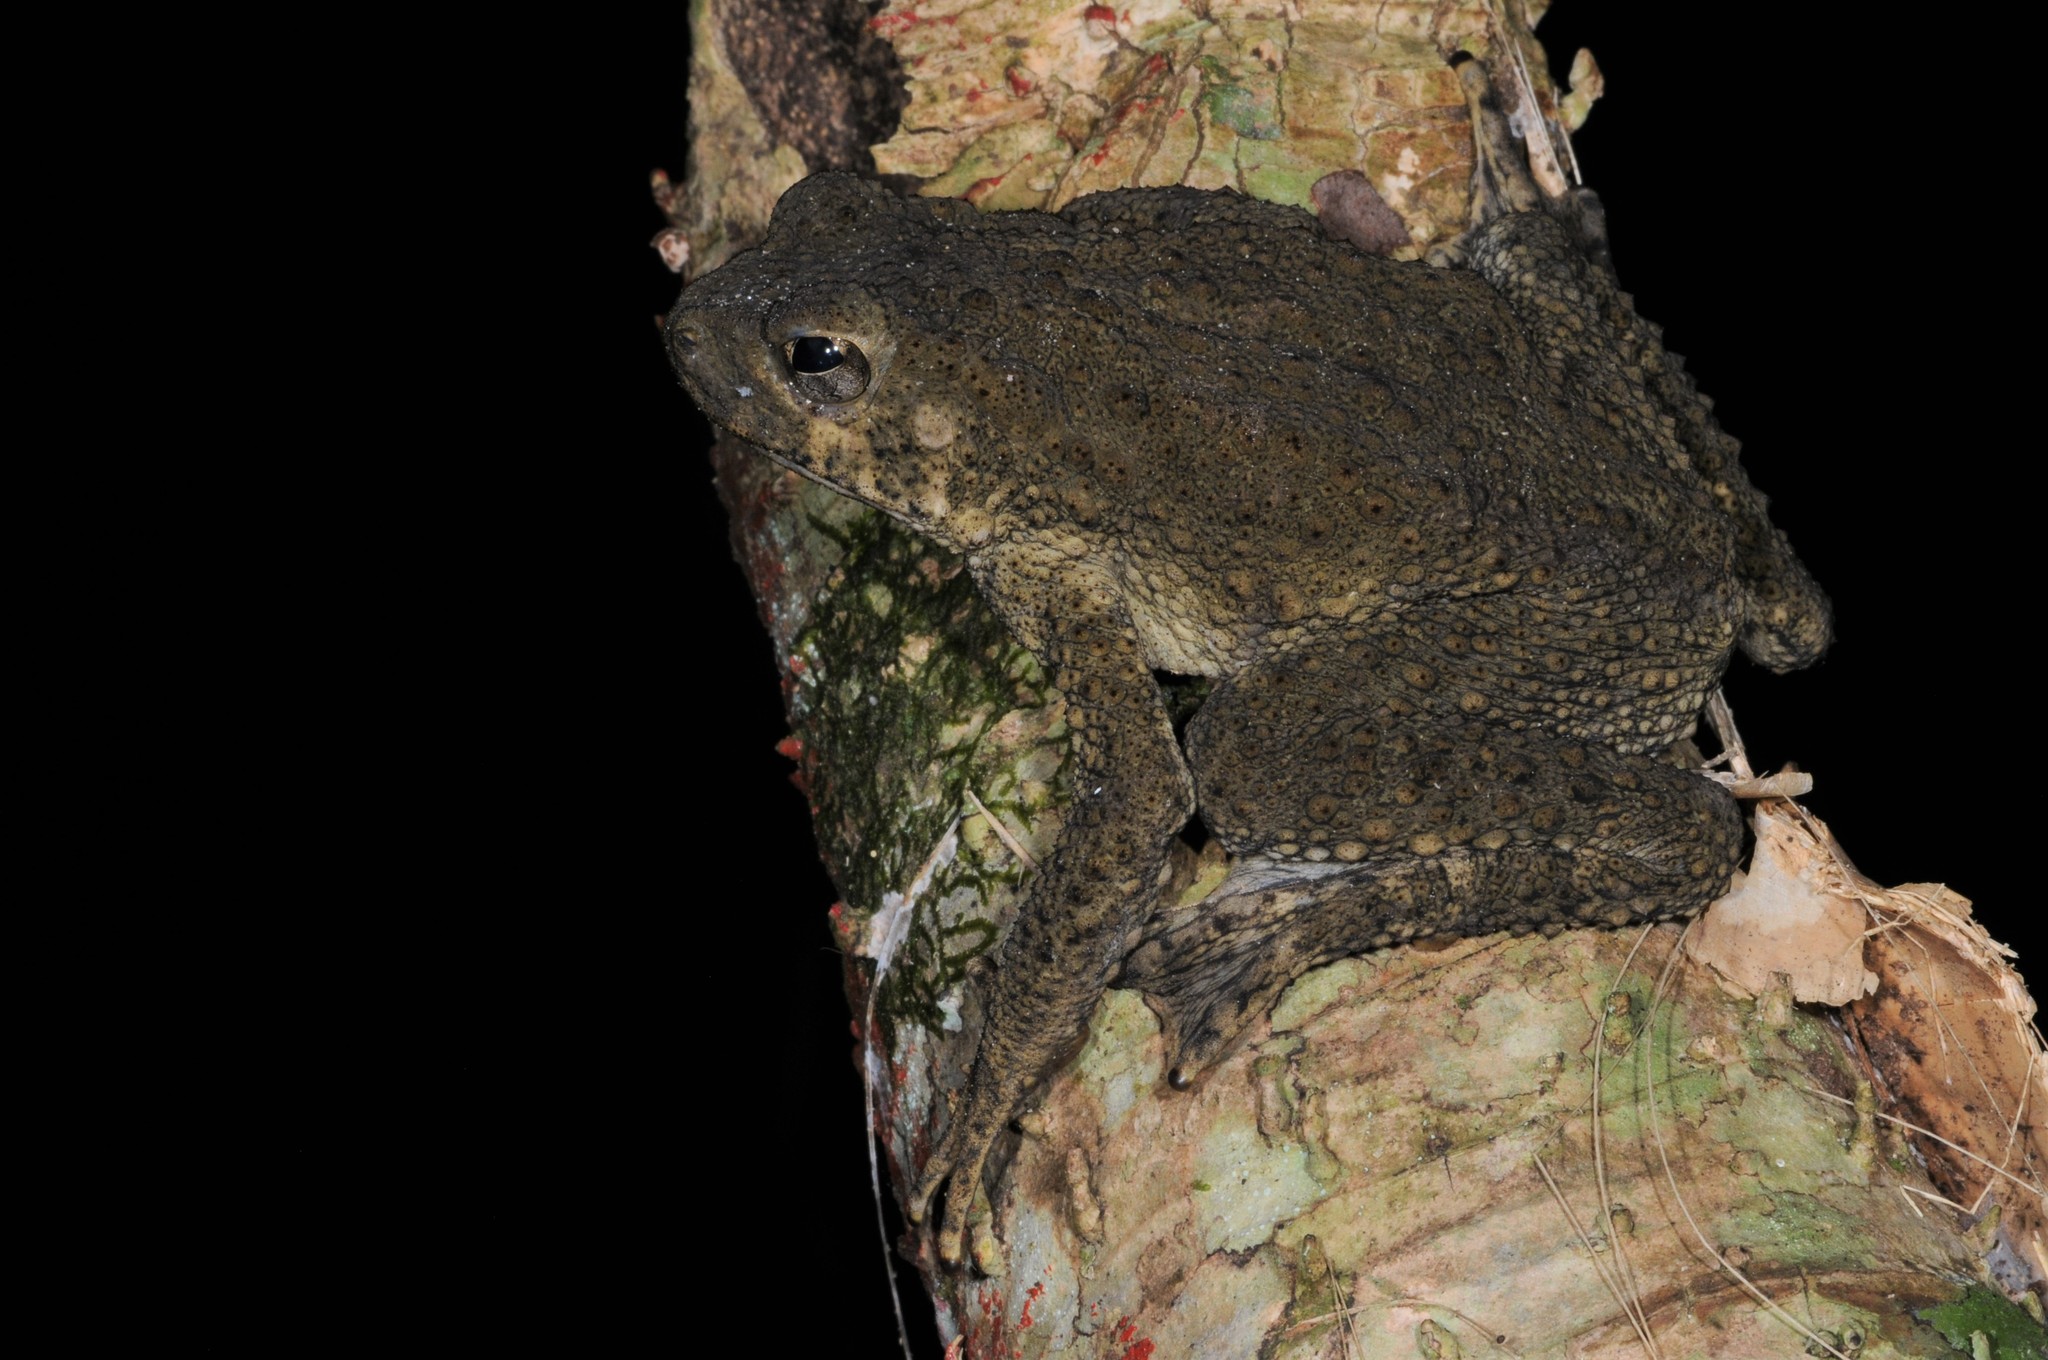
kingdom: Animalia
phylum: Chordata
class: Amphibia
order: Anura
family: Bufonidae
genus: Phrynoidis
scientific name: Phrynoidis asper
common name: Asian giant toad
